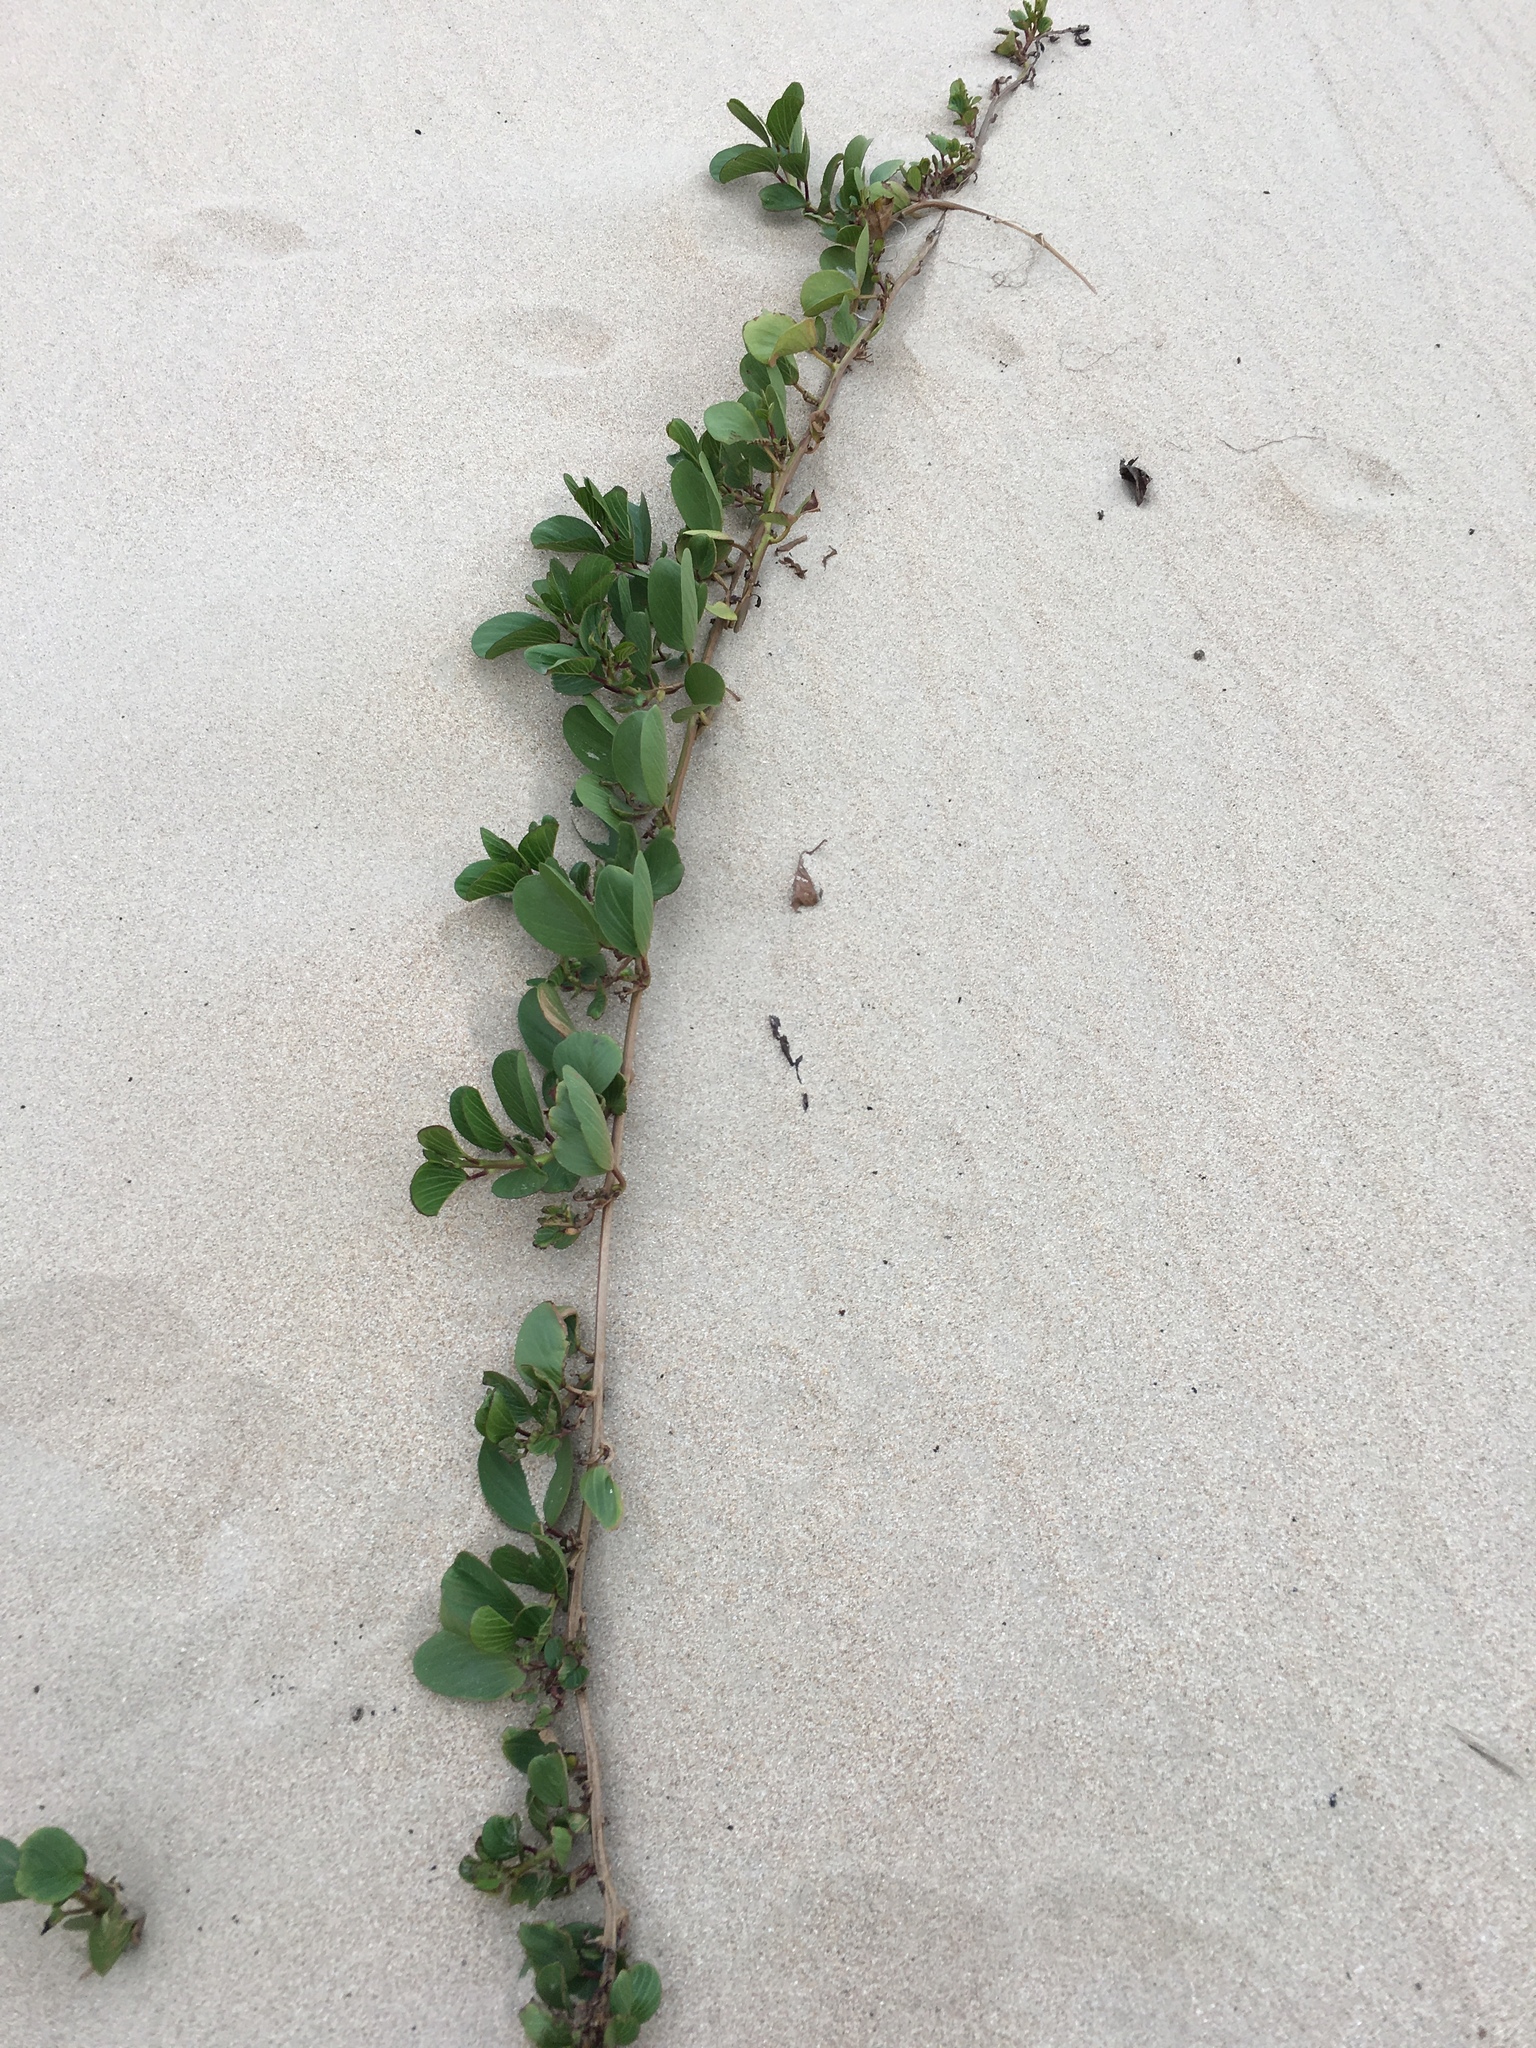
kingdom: Plantae
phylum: Tracheophyta
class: Magnoliopsida
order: Solanales
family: Convolvulaceae
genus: Ipomoea
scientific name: Ipomoea pes-caprae
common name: Beach morning glory
